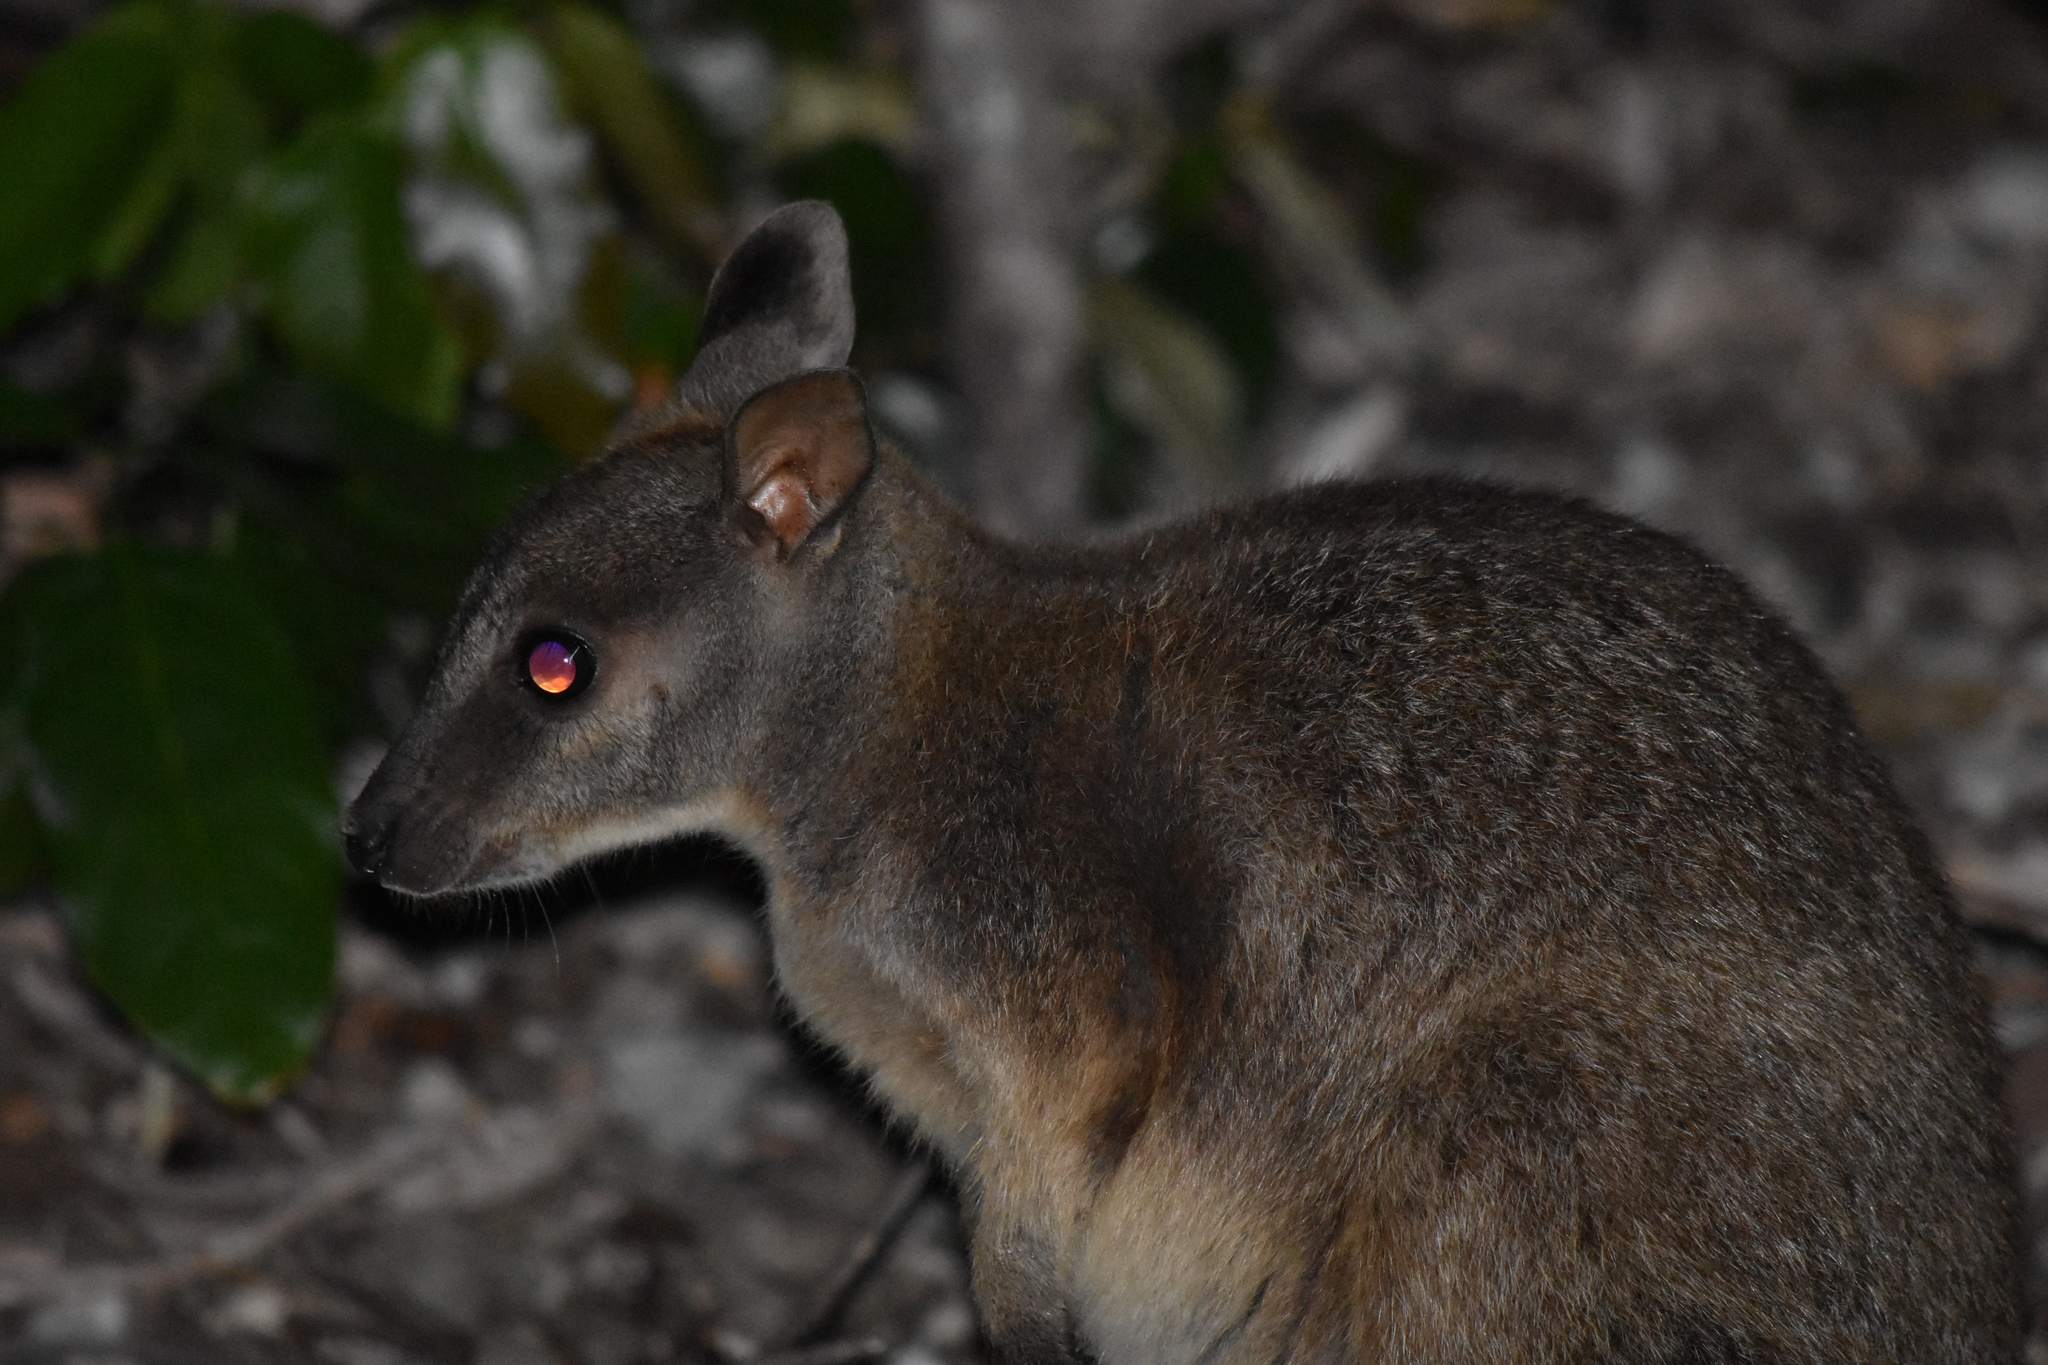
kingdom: Animalia
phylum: Chordata
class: Mammalia
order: Diprotodontia
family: Macropodidae
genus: Petrogale
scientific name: Petrogale inornata
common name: Unadorned rock wallaby
